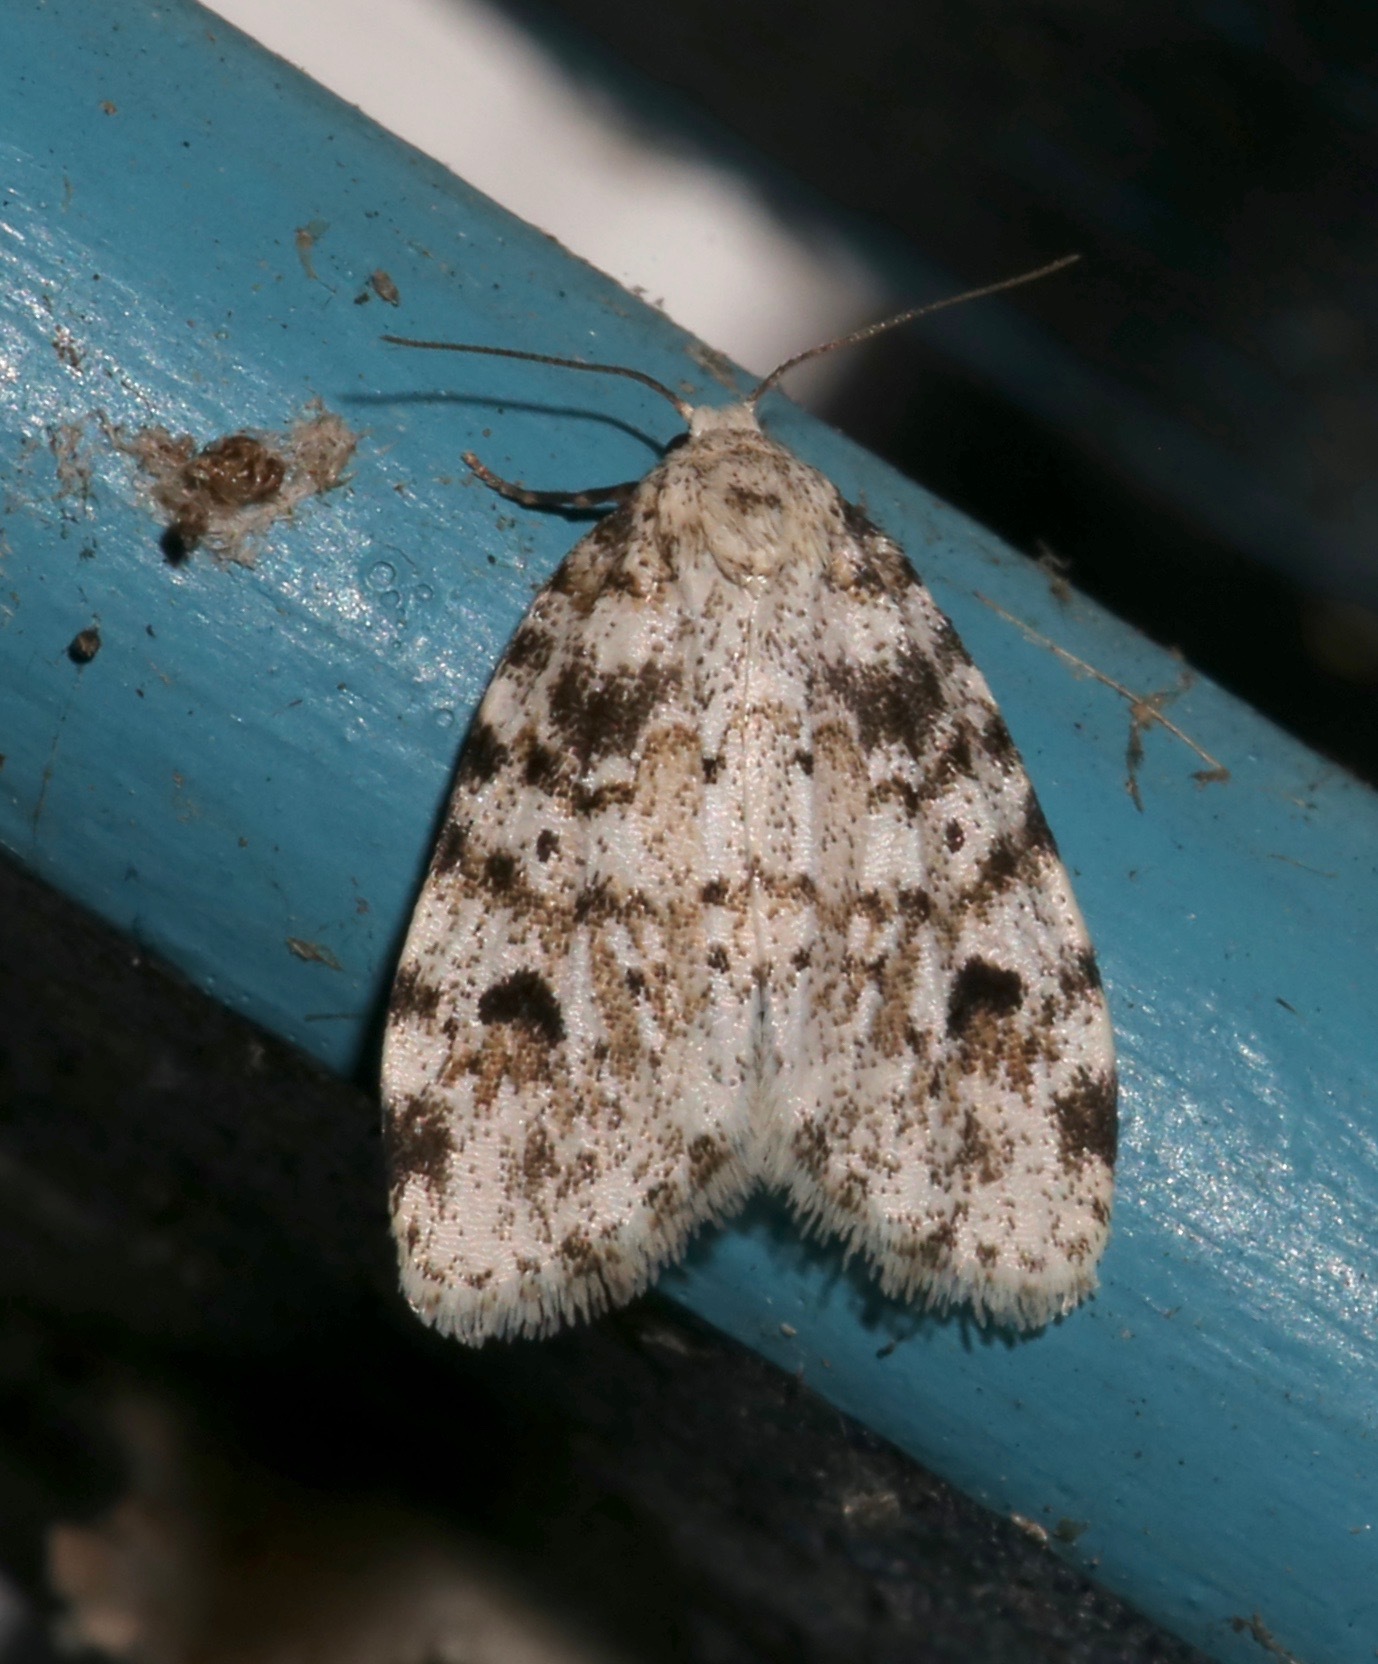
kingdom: Animalia
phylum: Arthropoda
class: Insecta
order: Lepidoptera
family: Erebidae
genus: Clemensia
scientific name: Clemensia ochreata
